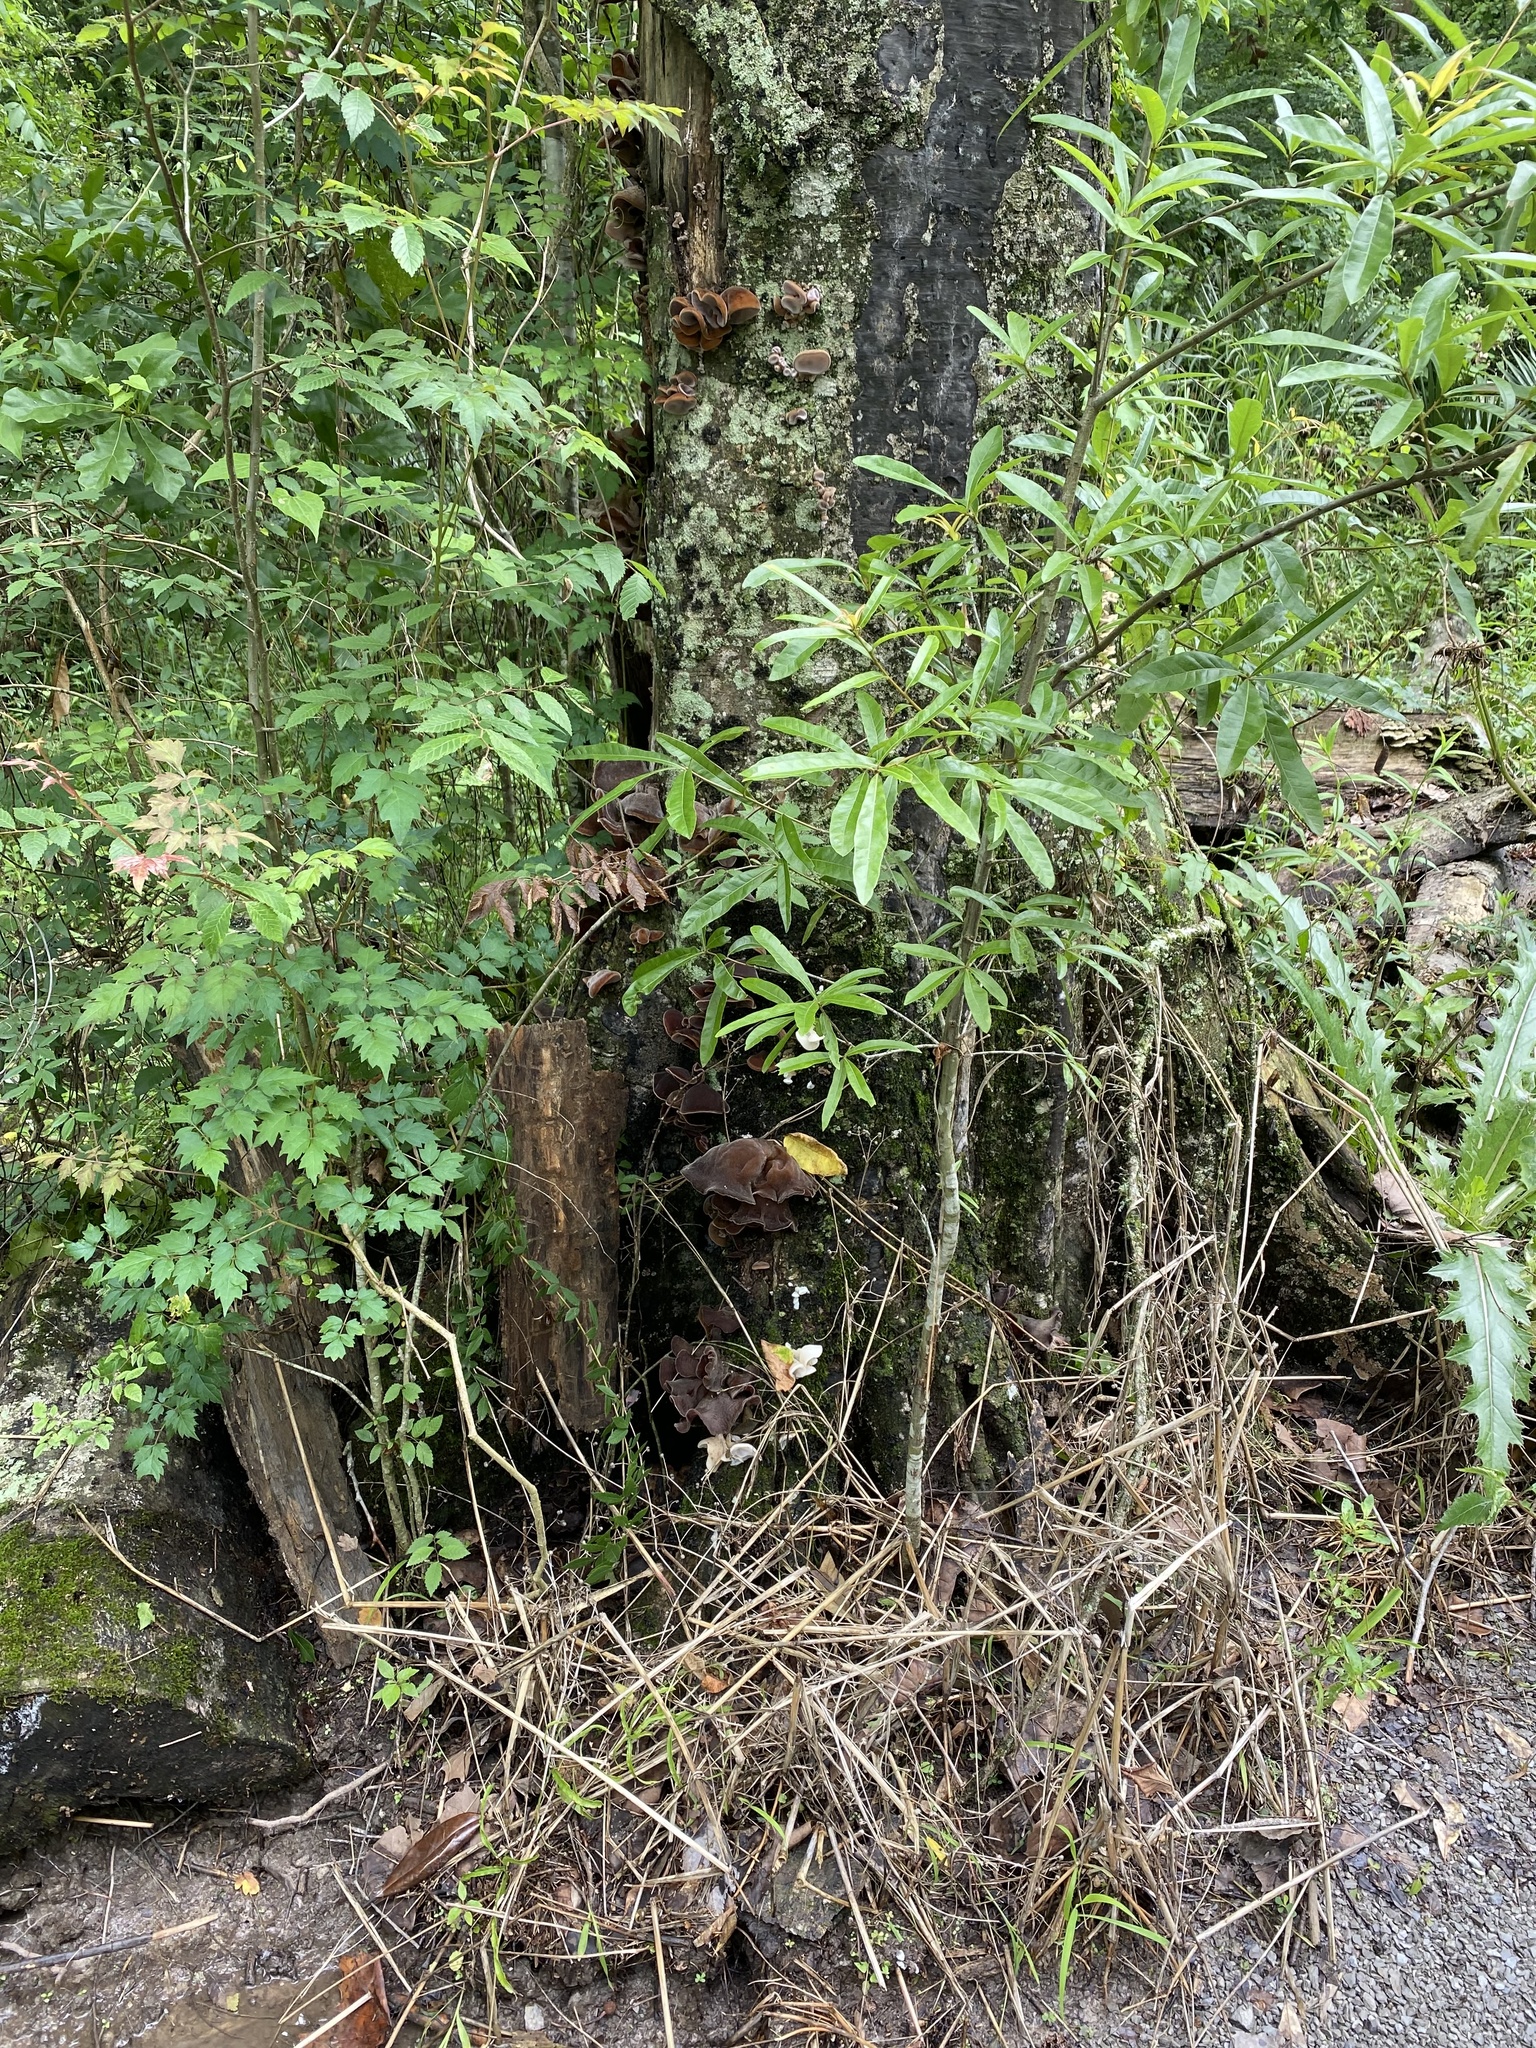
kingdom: Fungi
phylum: Basidiomycota
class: Agaricomycetes
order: Auriculariales
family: Auriculariaceae
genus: Auricularia
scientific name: Auricularia nigricans
